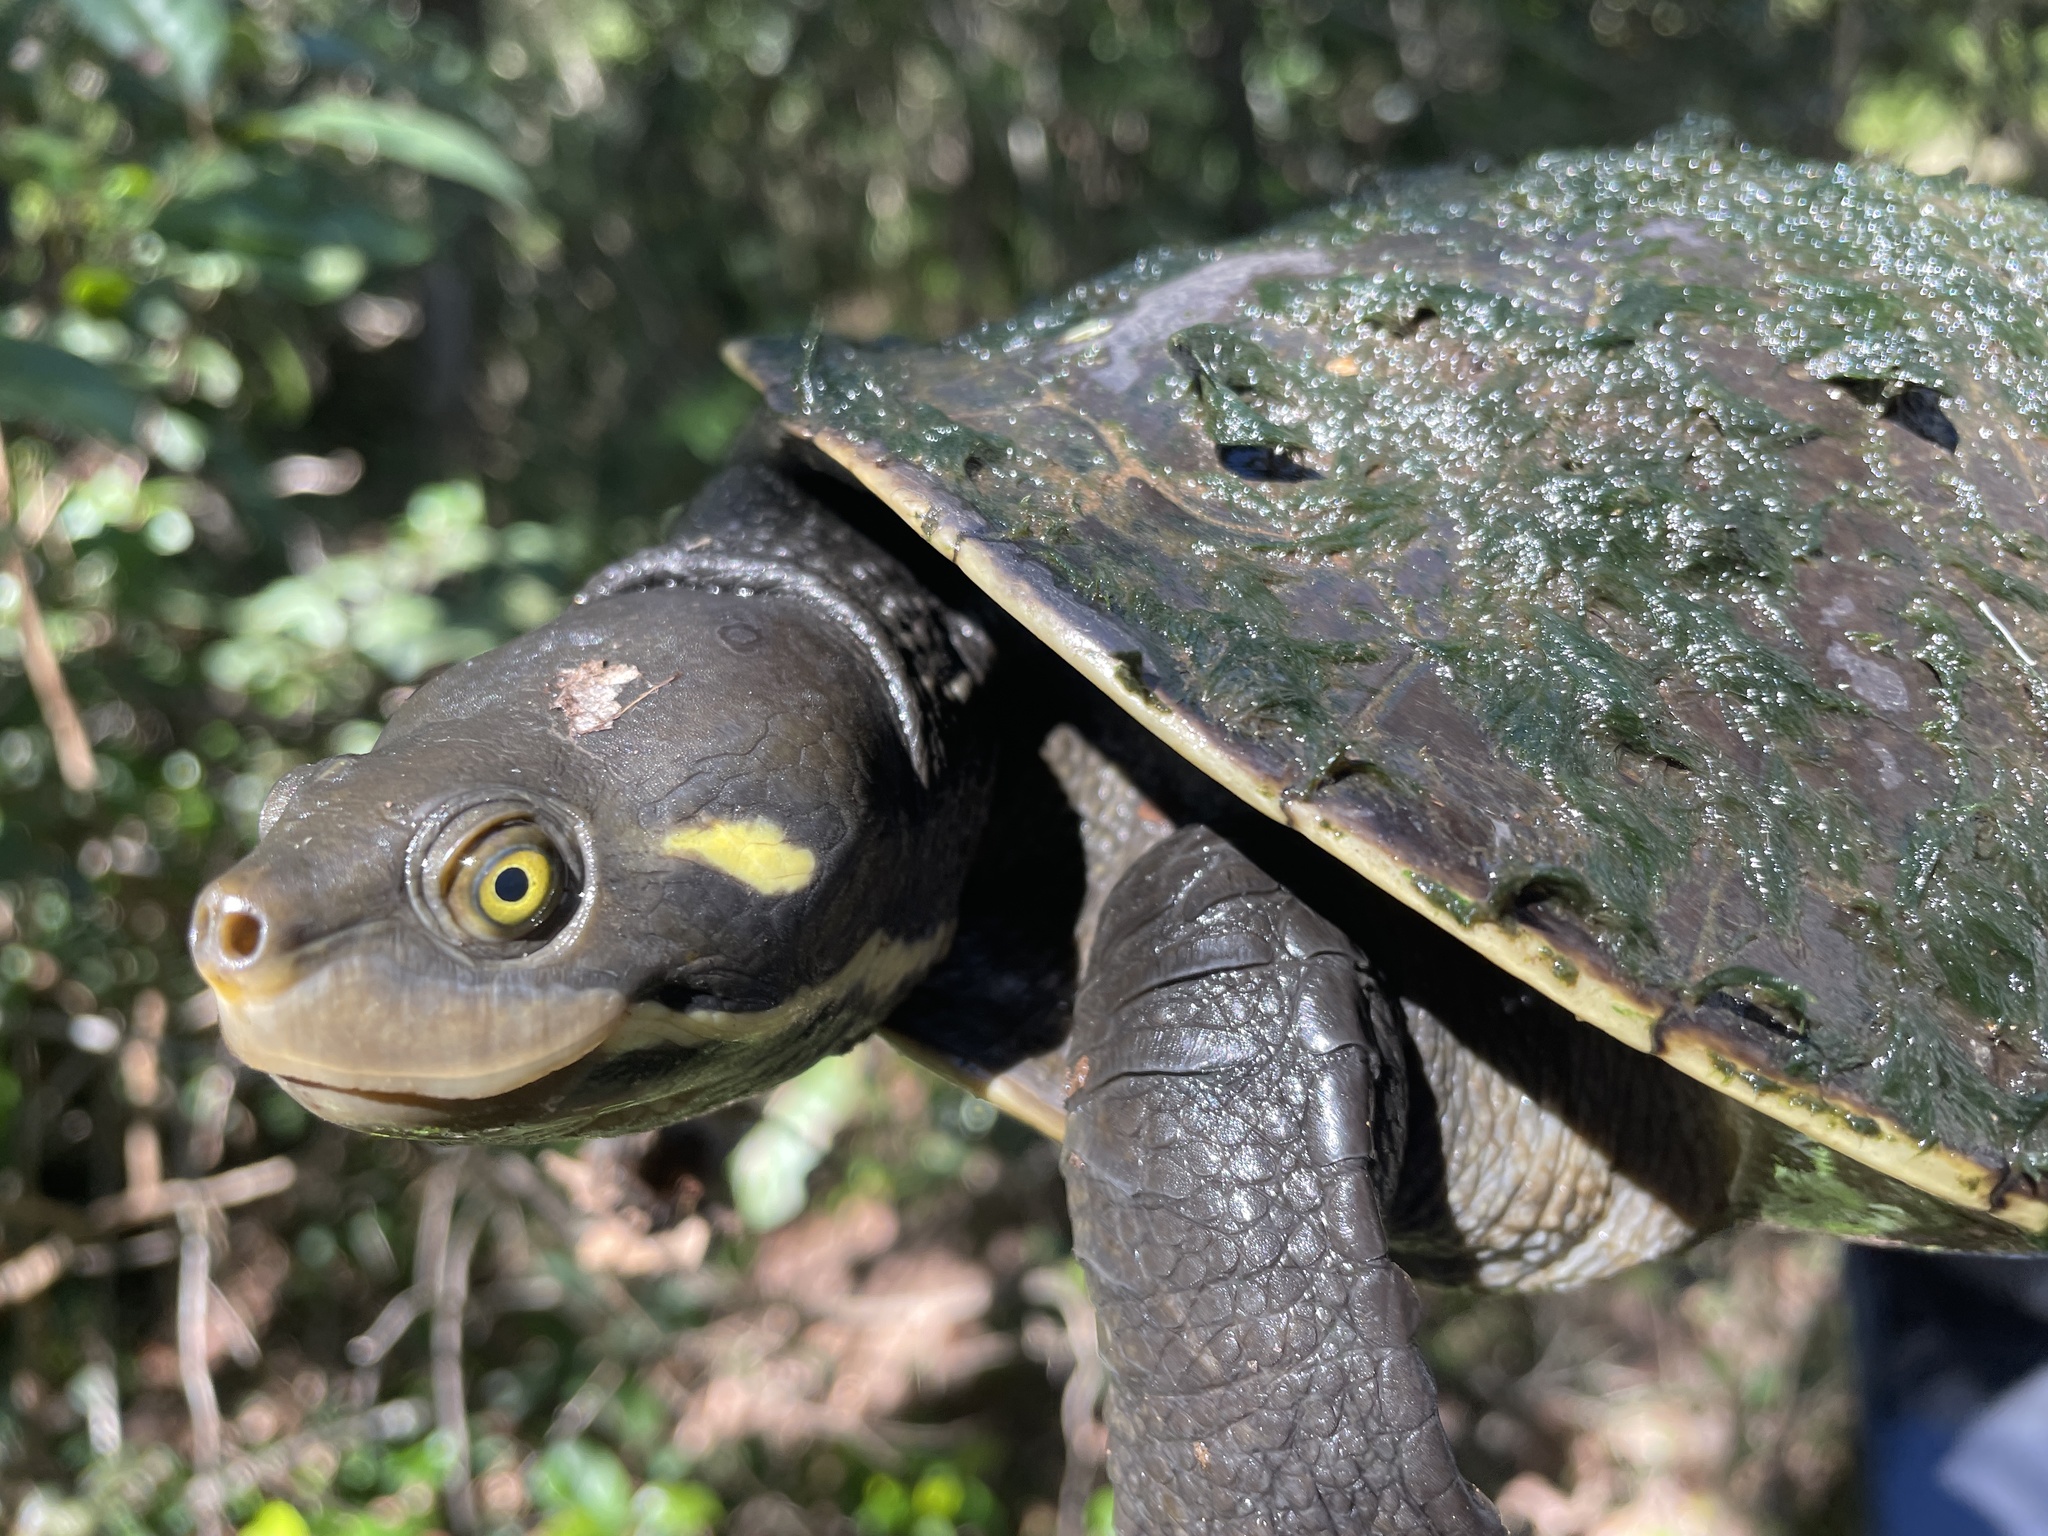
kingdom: Animalia
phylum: Chordata
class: Testudines
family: Chelidae
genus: Emydura
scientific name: Emydura macquarii
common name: Murray river turtle
